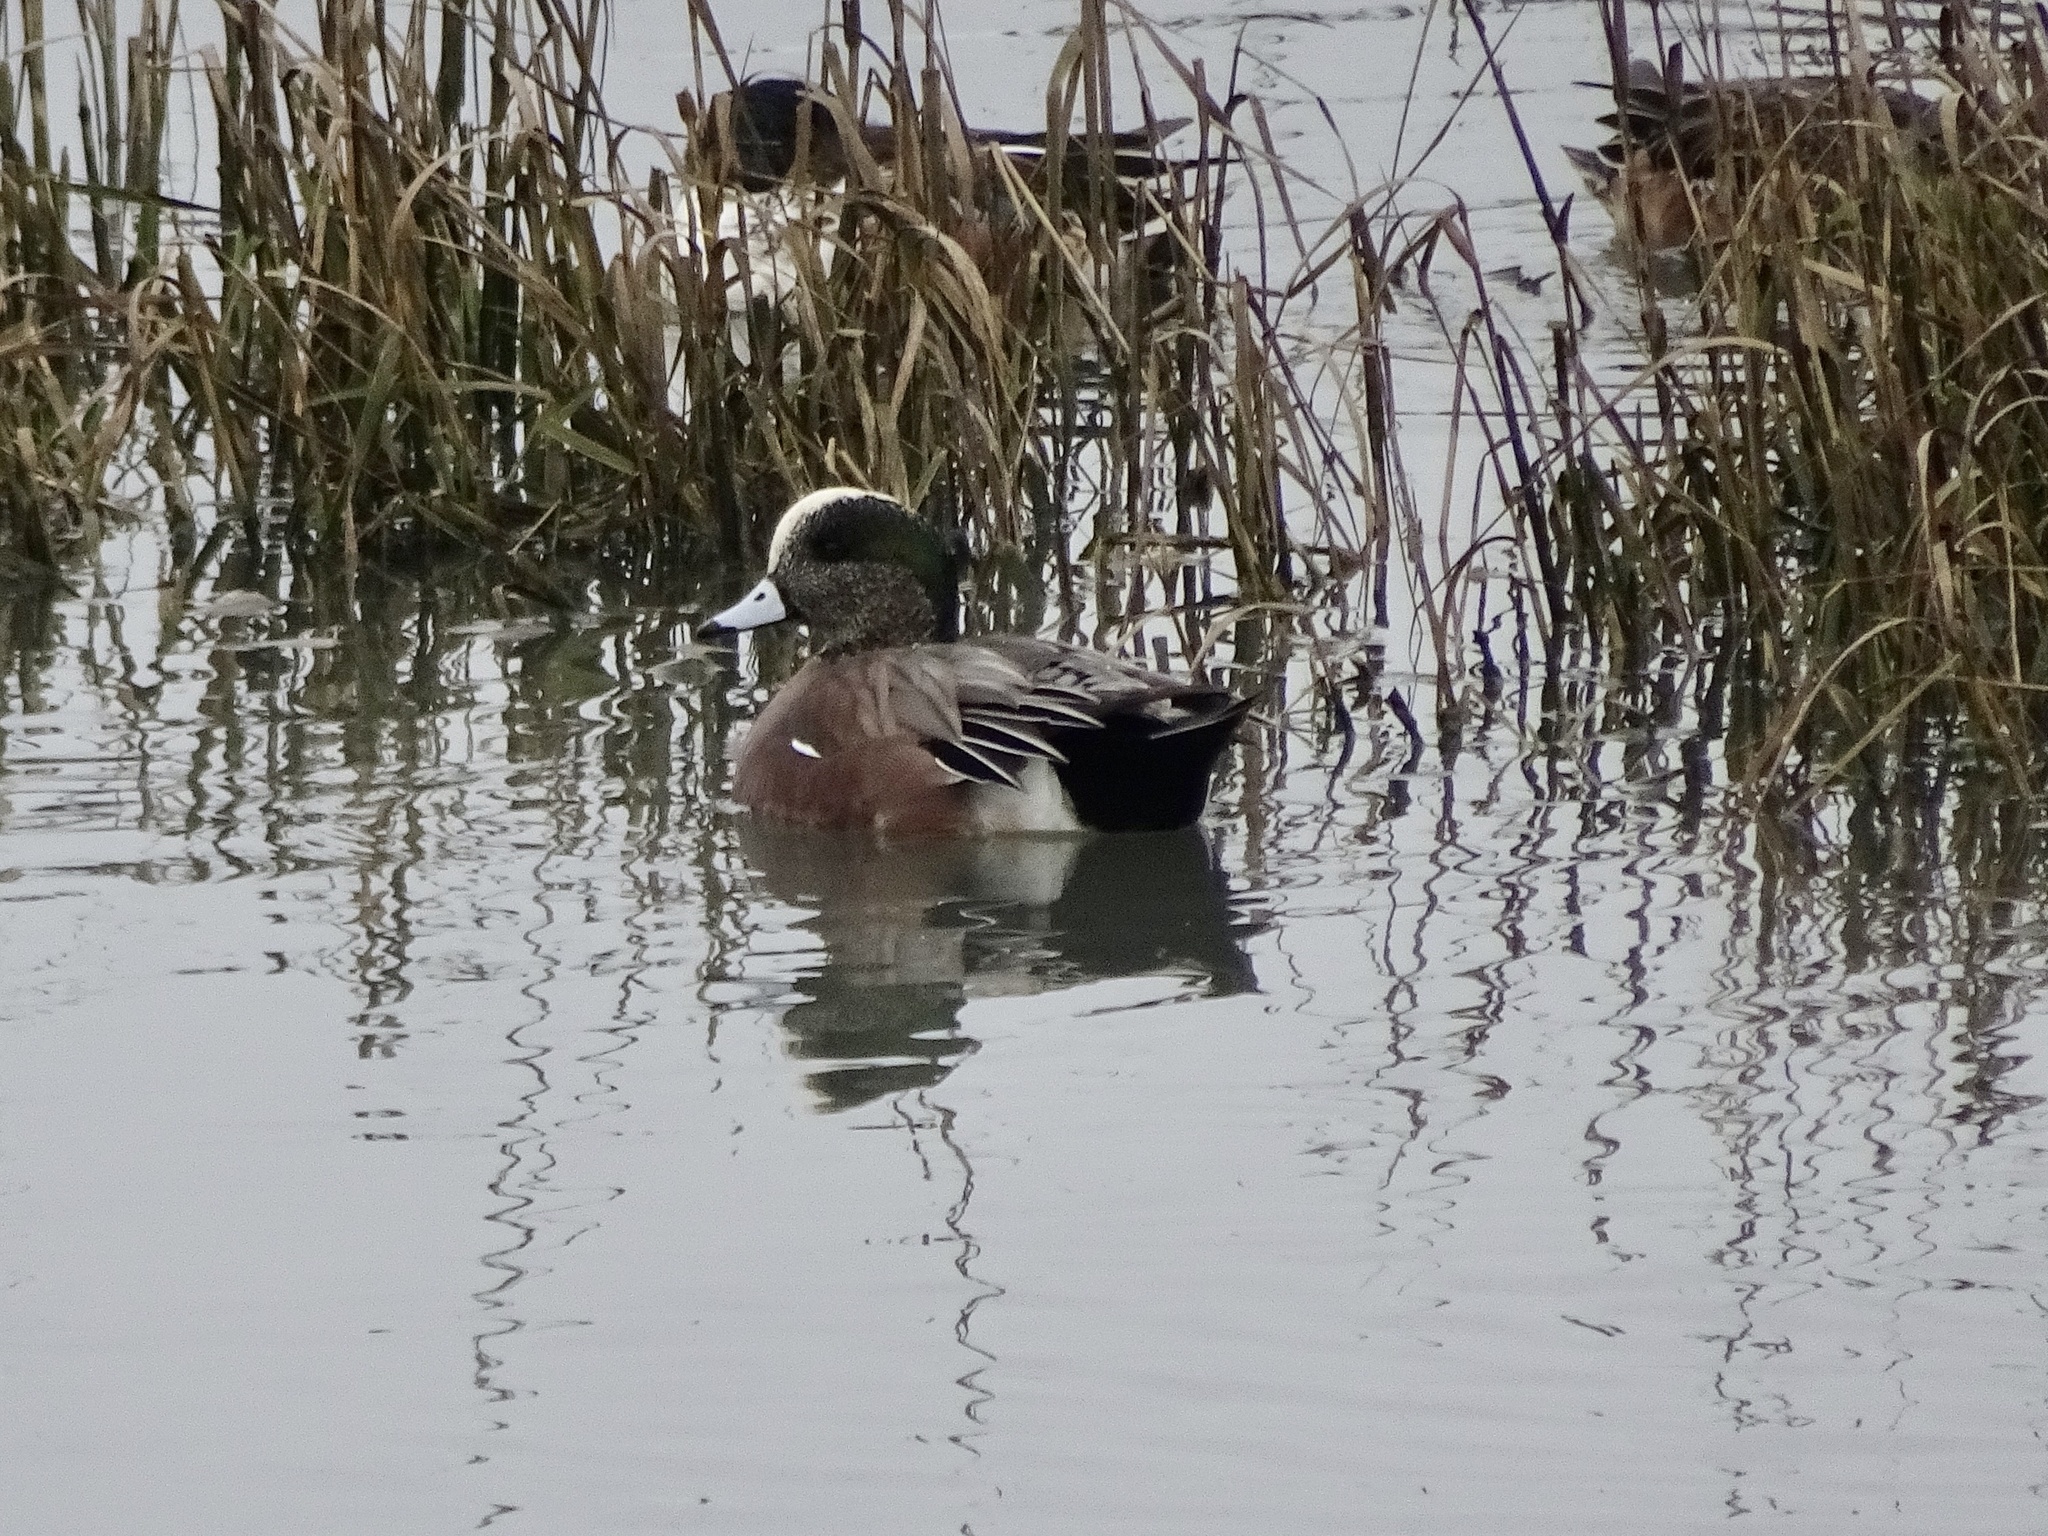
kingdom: Animalia
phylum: Chordata
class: Aves
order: Anseriformes
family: Anatidae
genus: Mareca
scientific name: Mareca americana
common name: American wigeon
